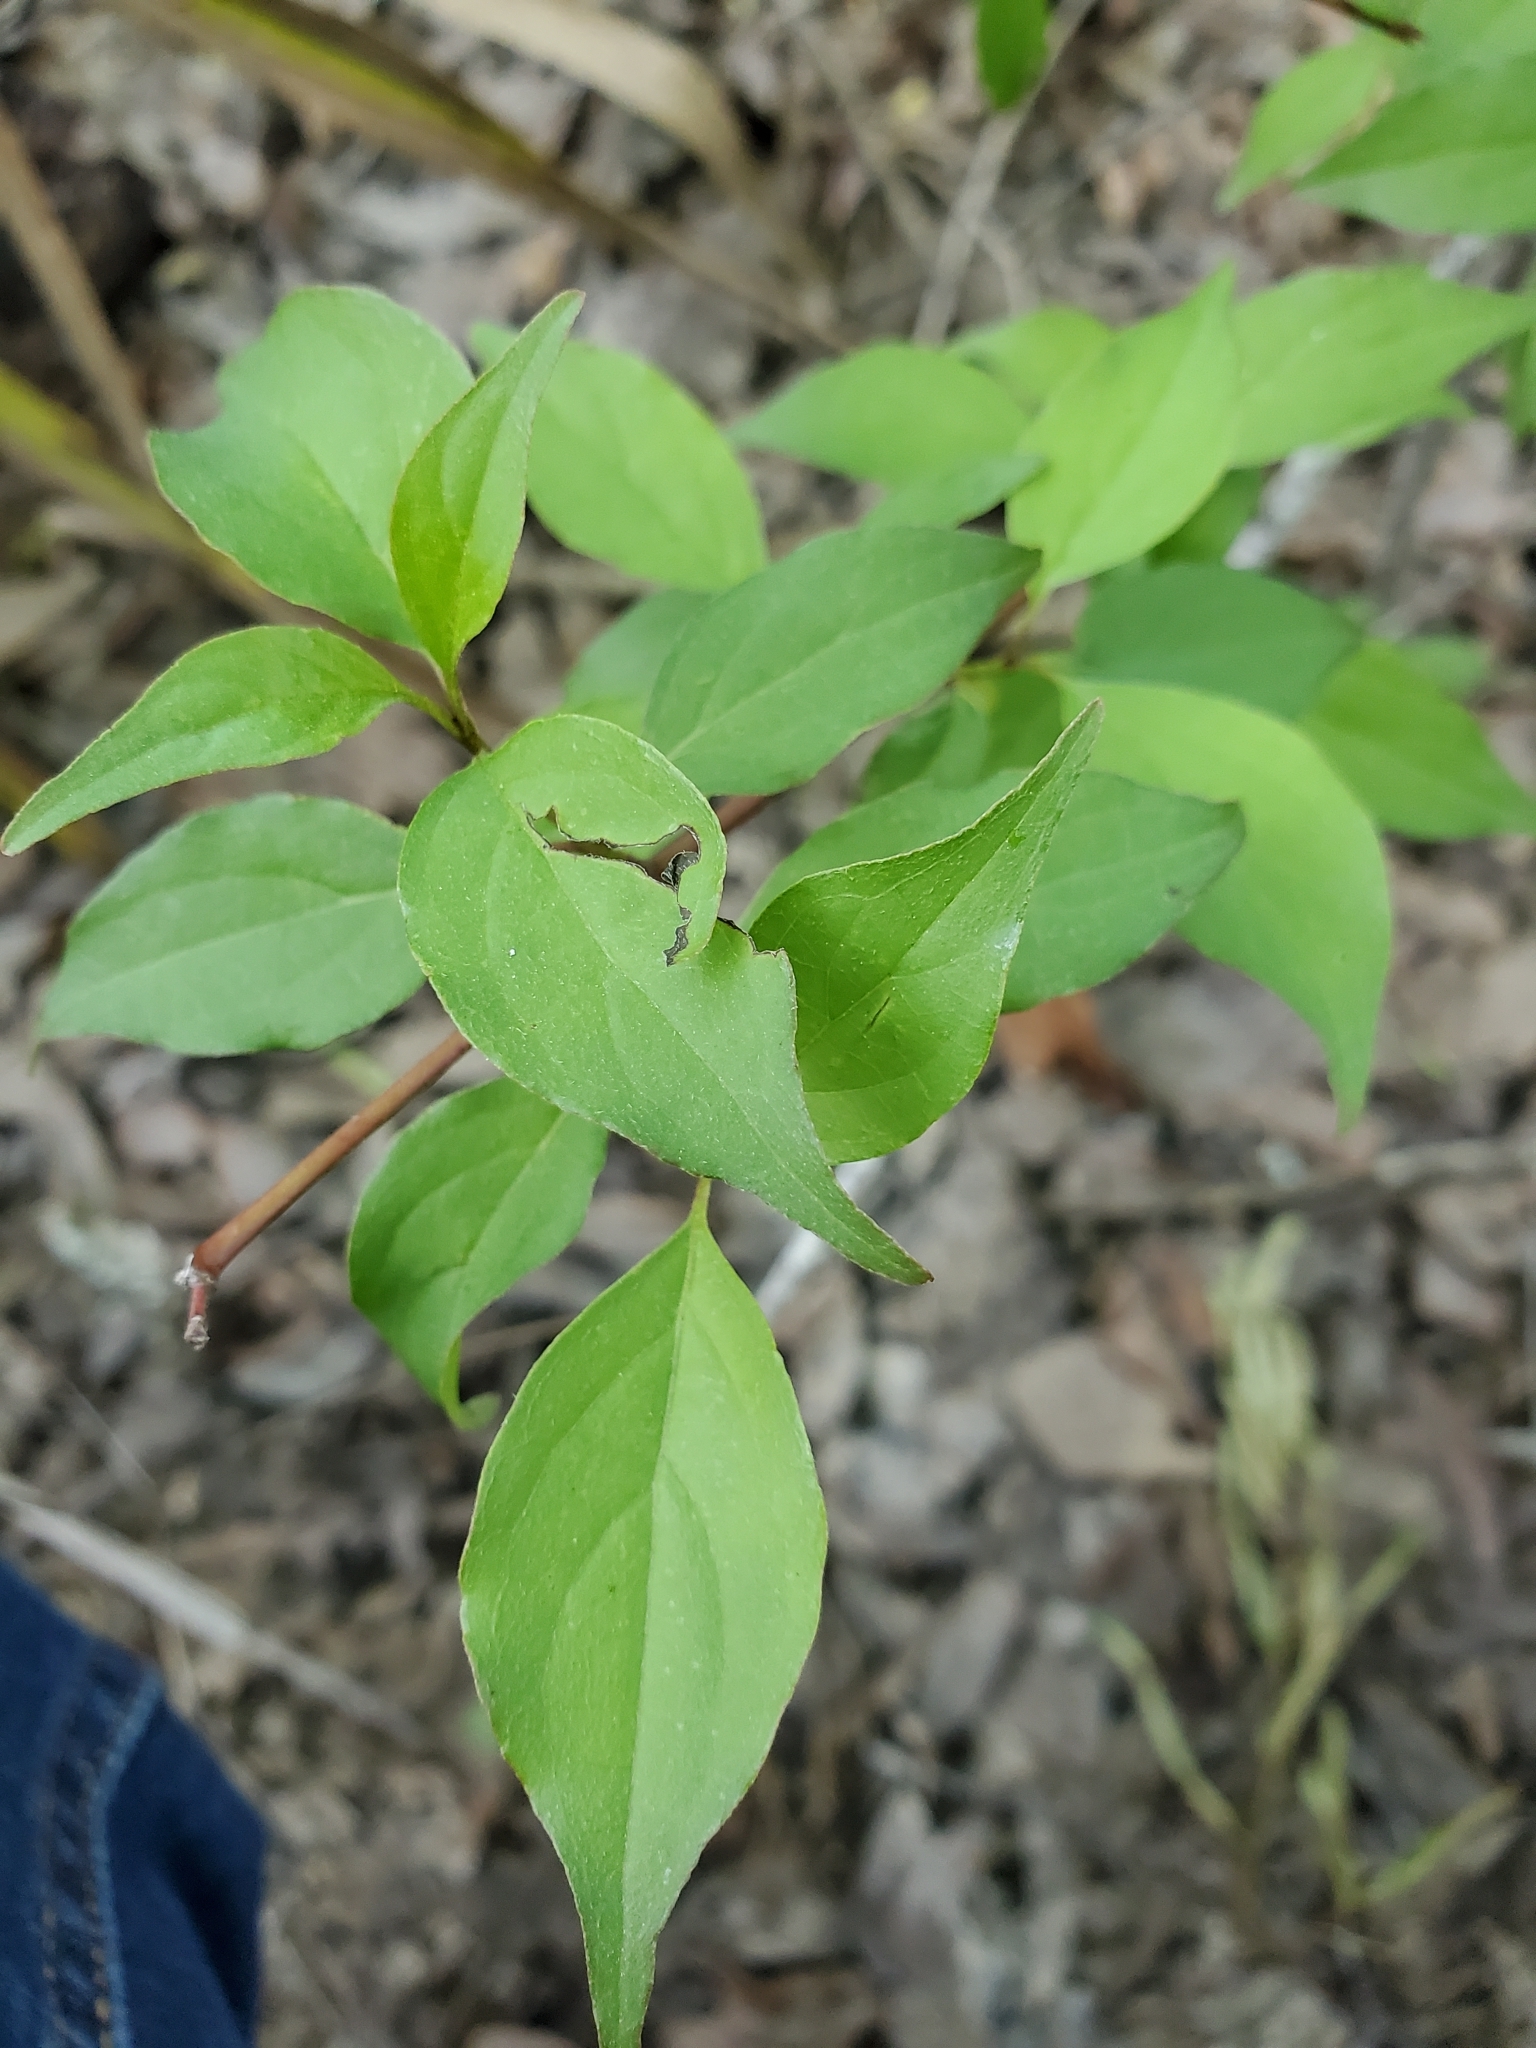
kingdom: Plantae
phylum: Tracheophyta
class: Magnoliopsida
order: Cornales
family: Cornaceae
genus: Cornus
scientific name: Cornus drummondii
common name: Rough-leaf dogwood
